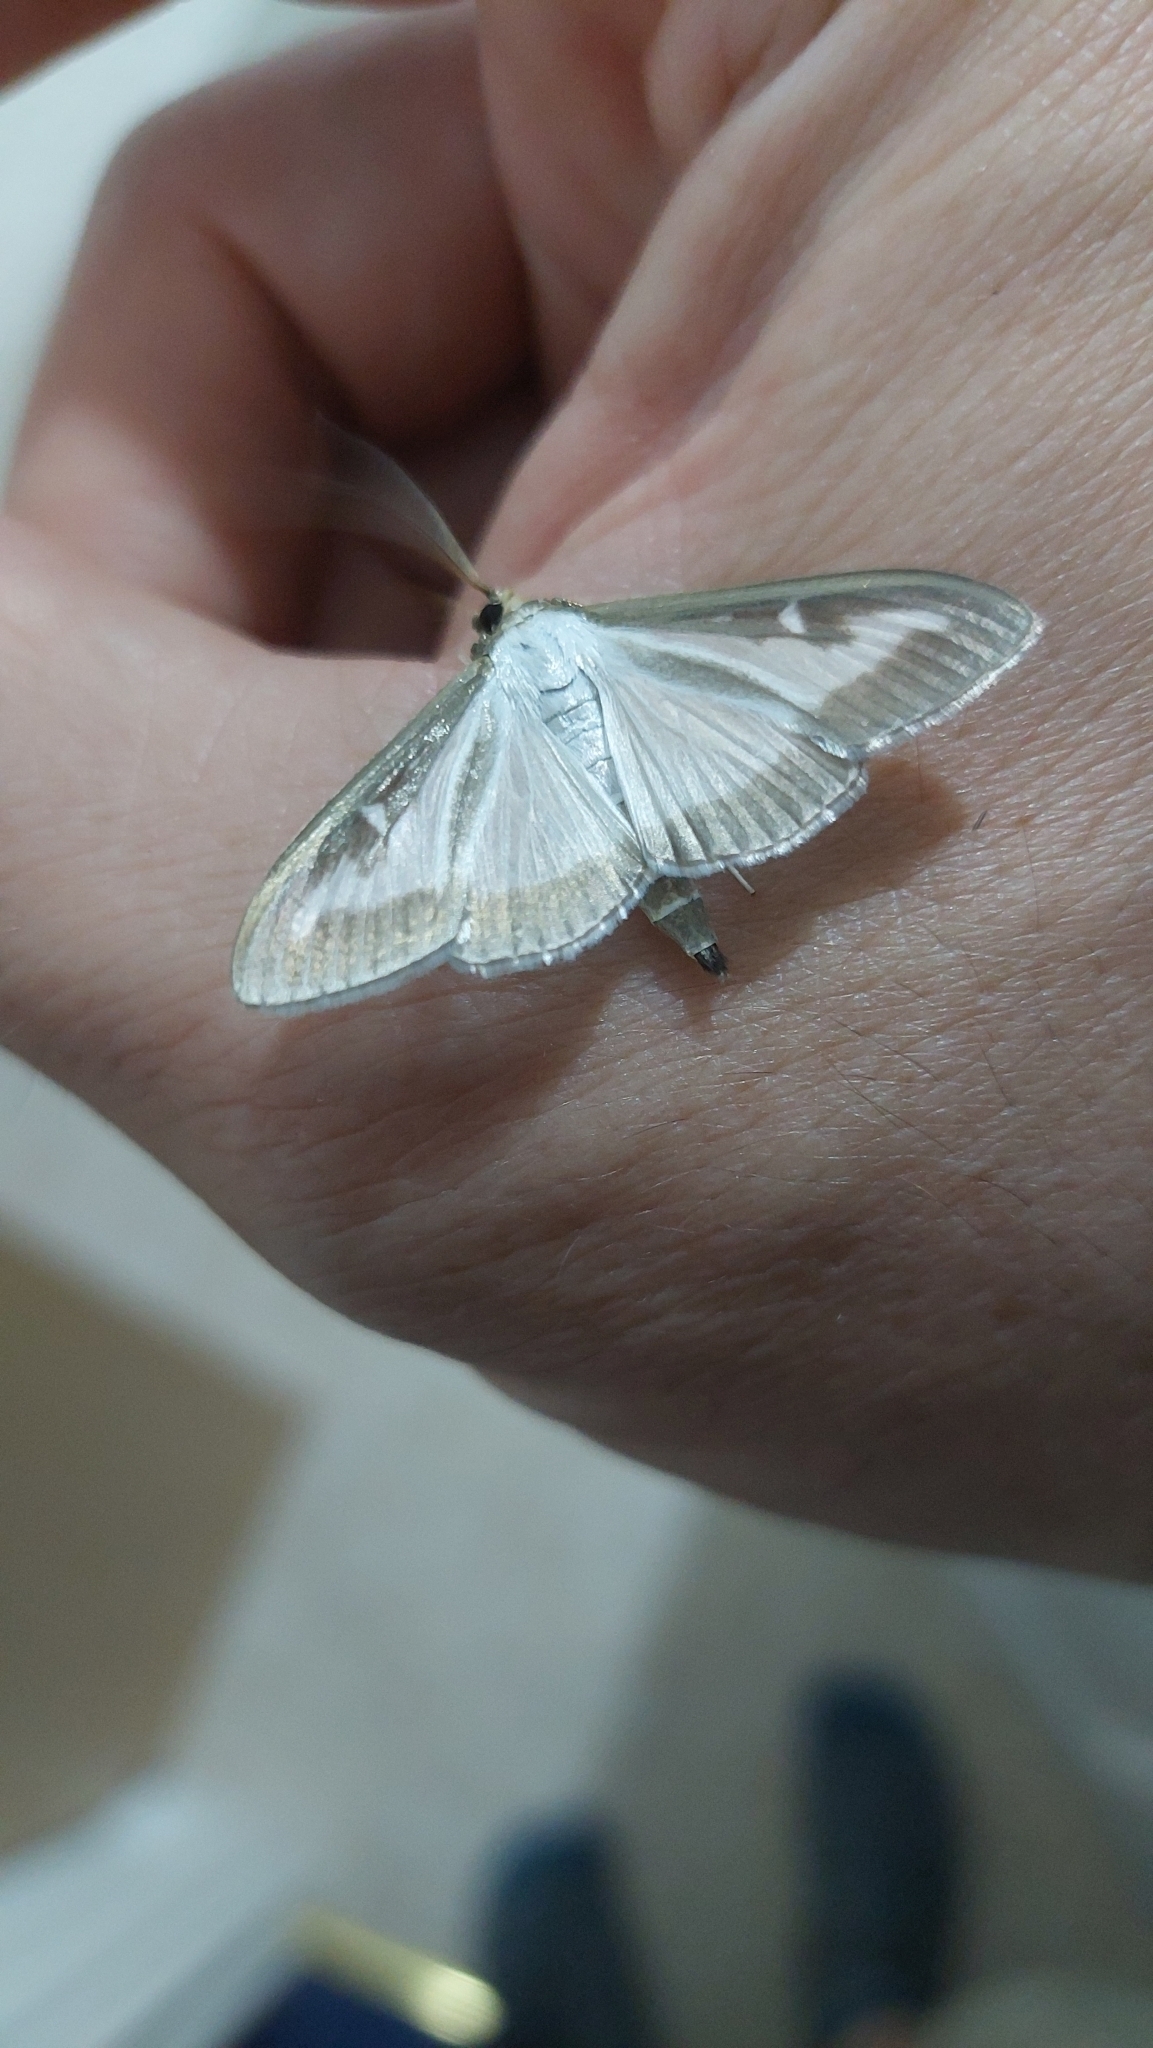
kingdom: Animalia
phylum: Arthropoda
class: Insecta
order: Lepidoptera
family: Crambidae
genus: Cydalima
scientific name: Cydalima perspectalis
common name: Box tree moth
